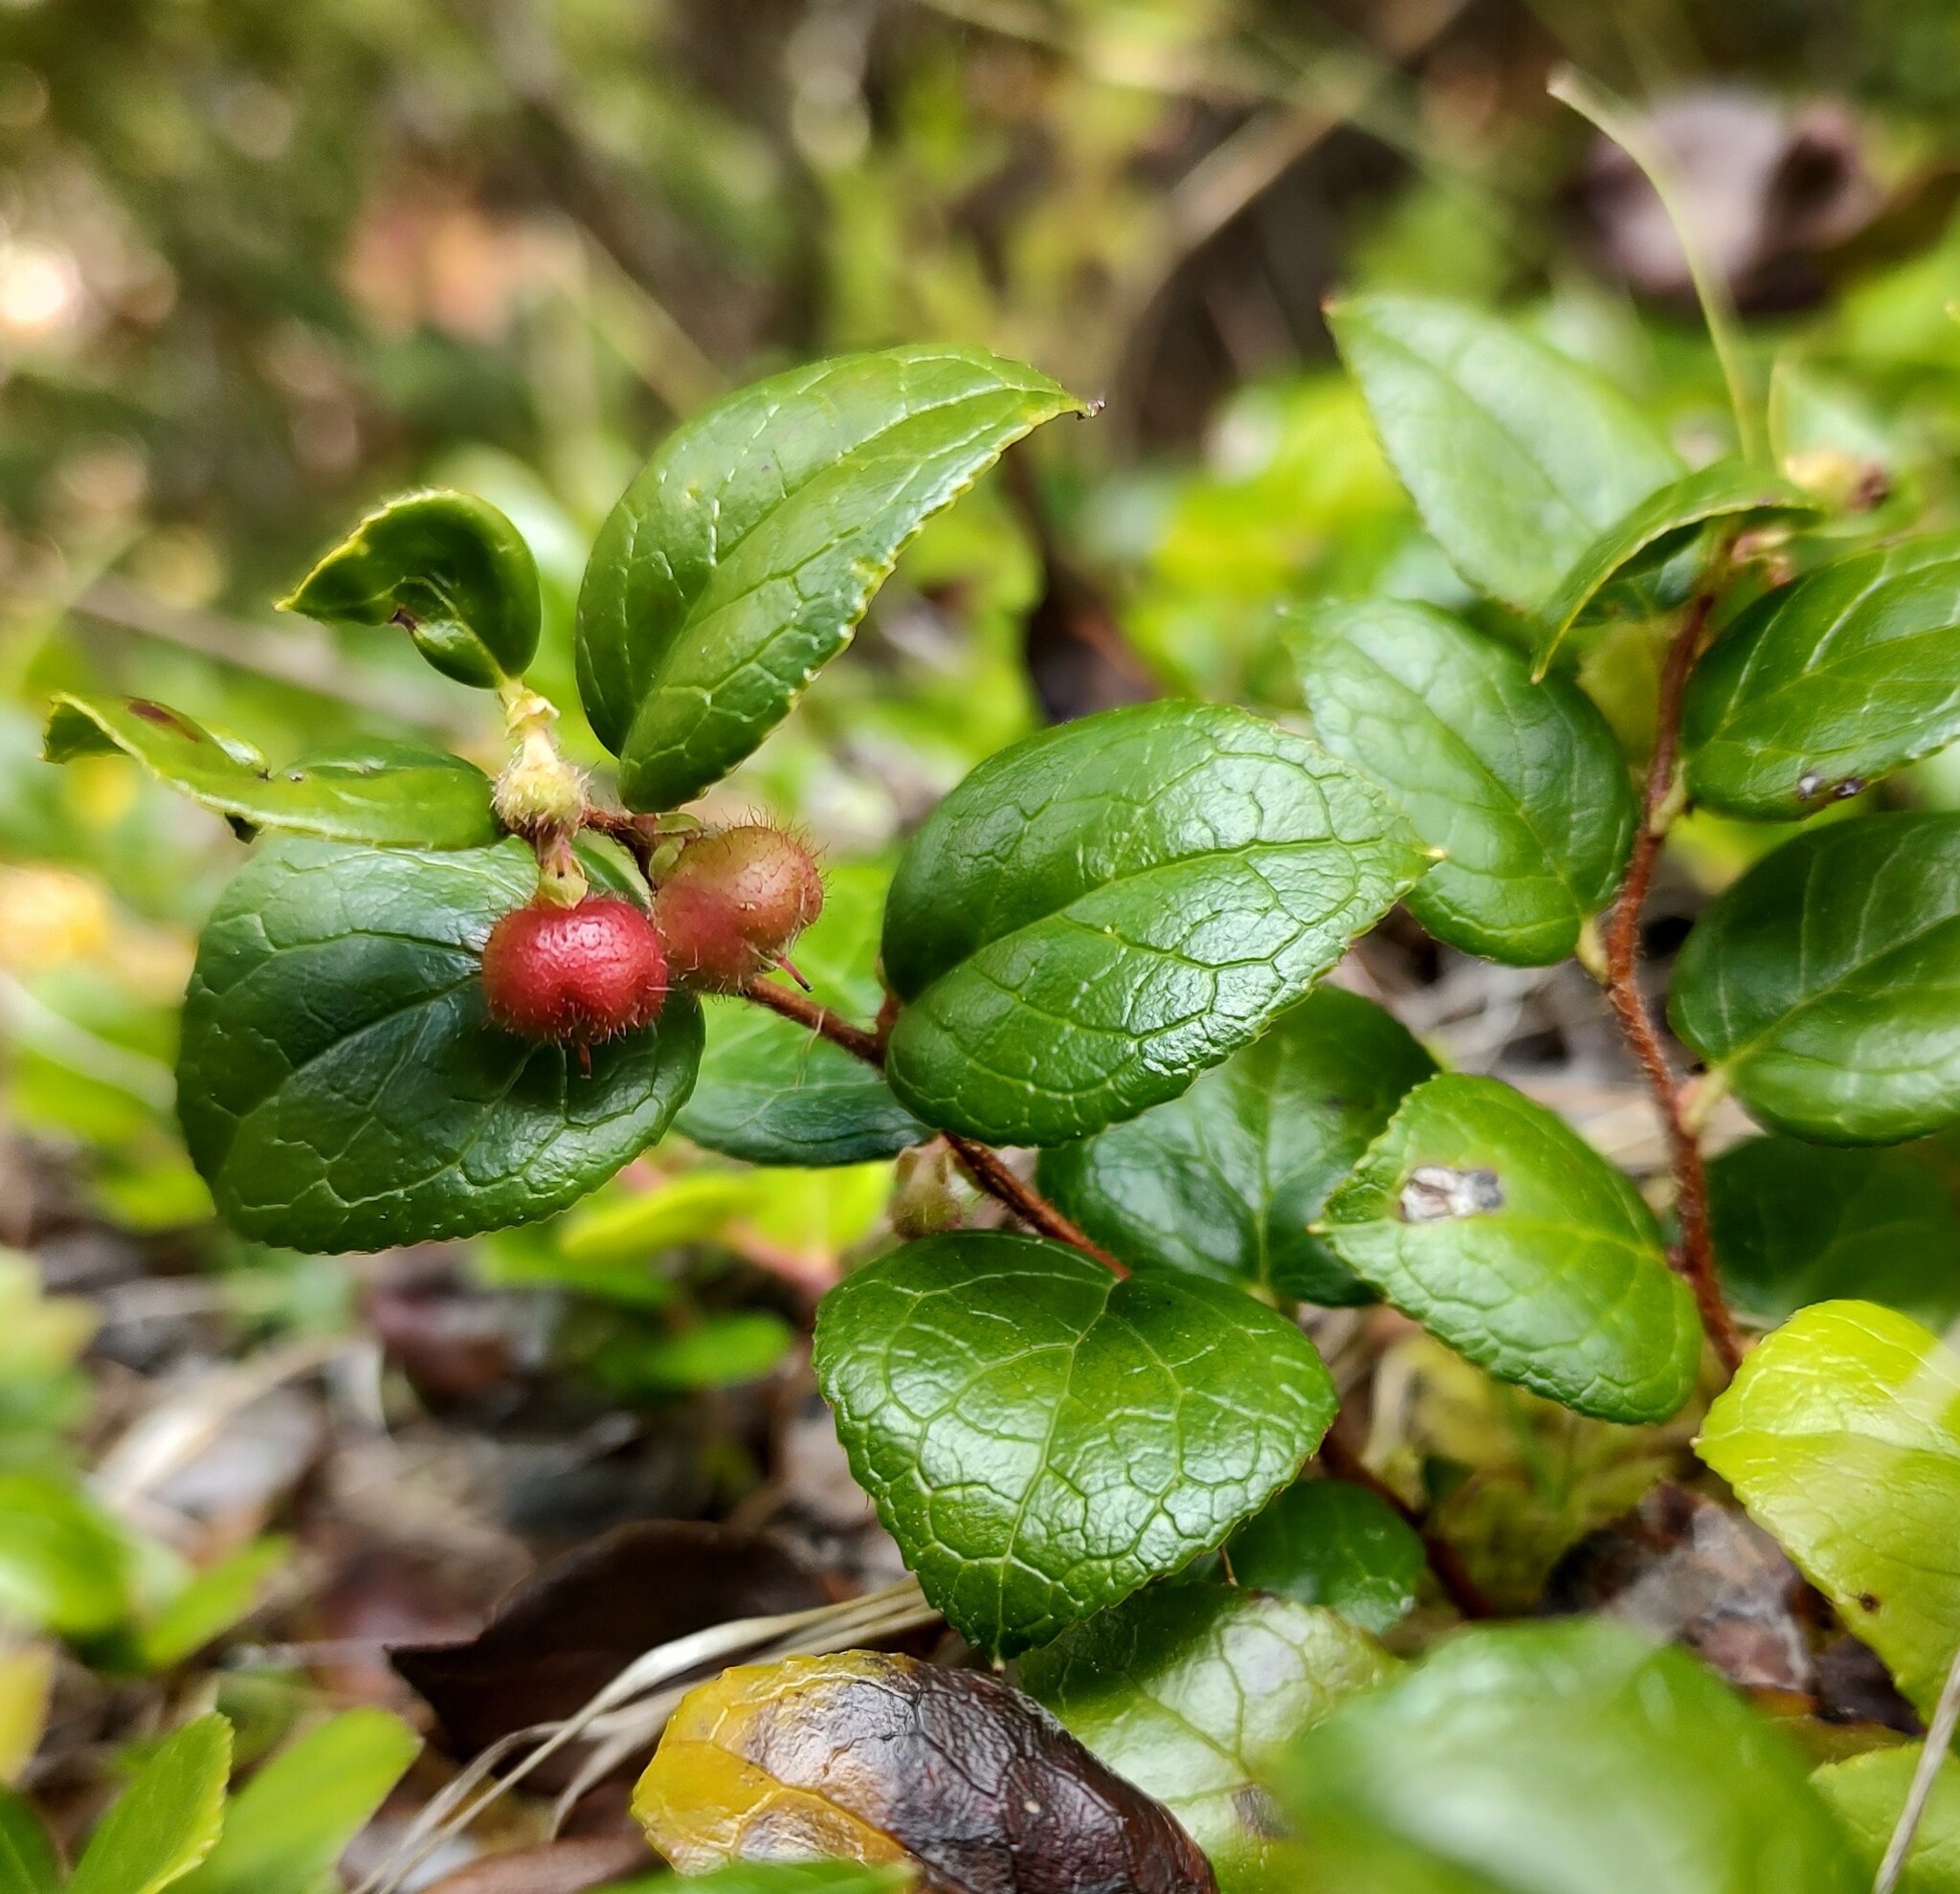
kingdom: Plantae
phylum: Tracheophyta
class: Magnoliopsida
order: Ericales
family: Ericaceae
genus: Gaultheria
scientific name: Gaultheria ovatifolia
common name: Oregon wintergreen
